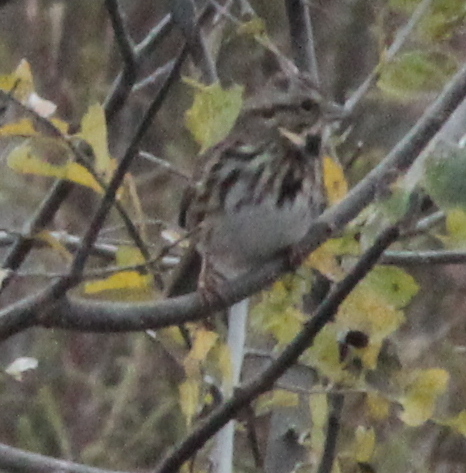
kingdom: Animalia
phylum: Chordata
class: Aves
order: Passeriformes
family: Passerellidae
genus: Melospiza
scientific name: Melospiza melodia
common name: Song sparrow
